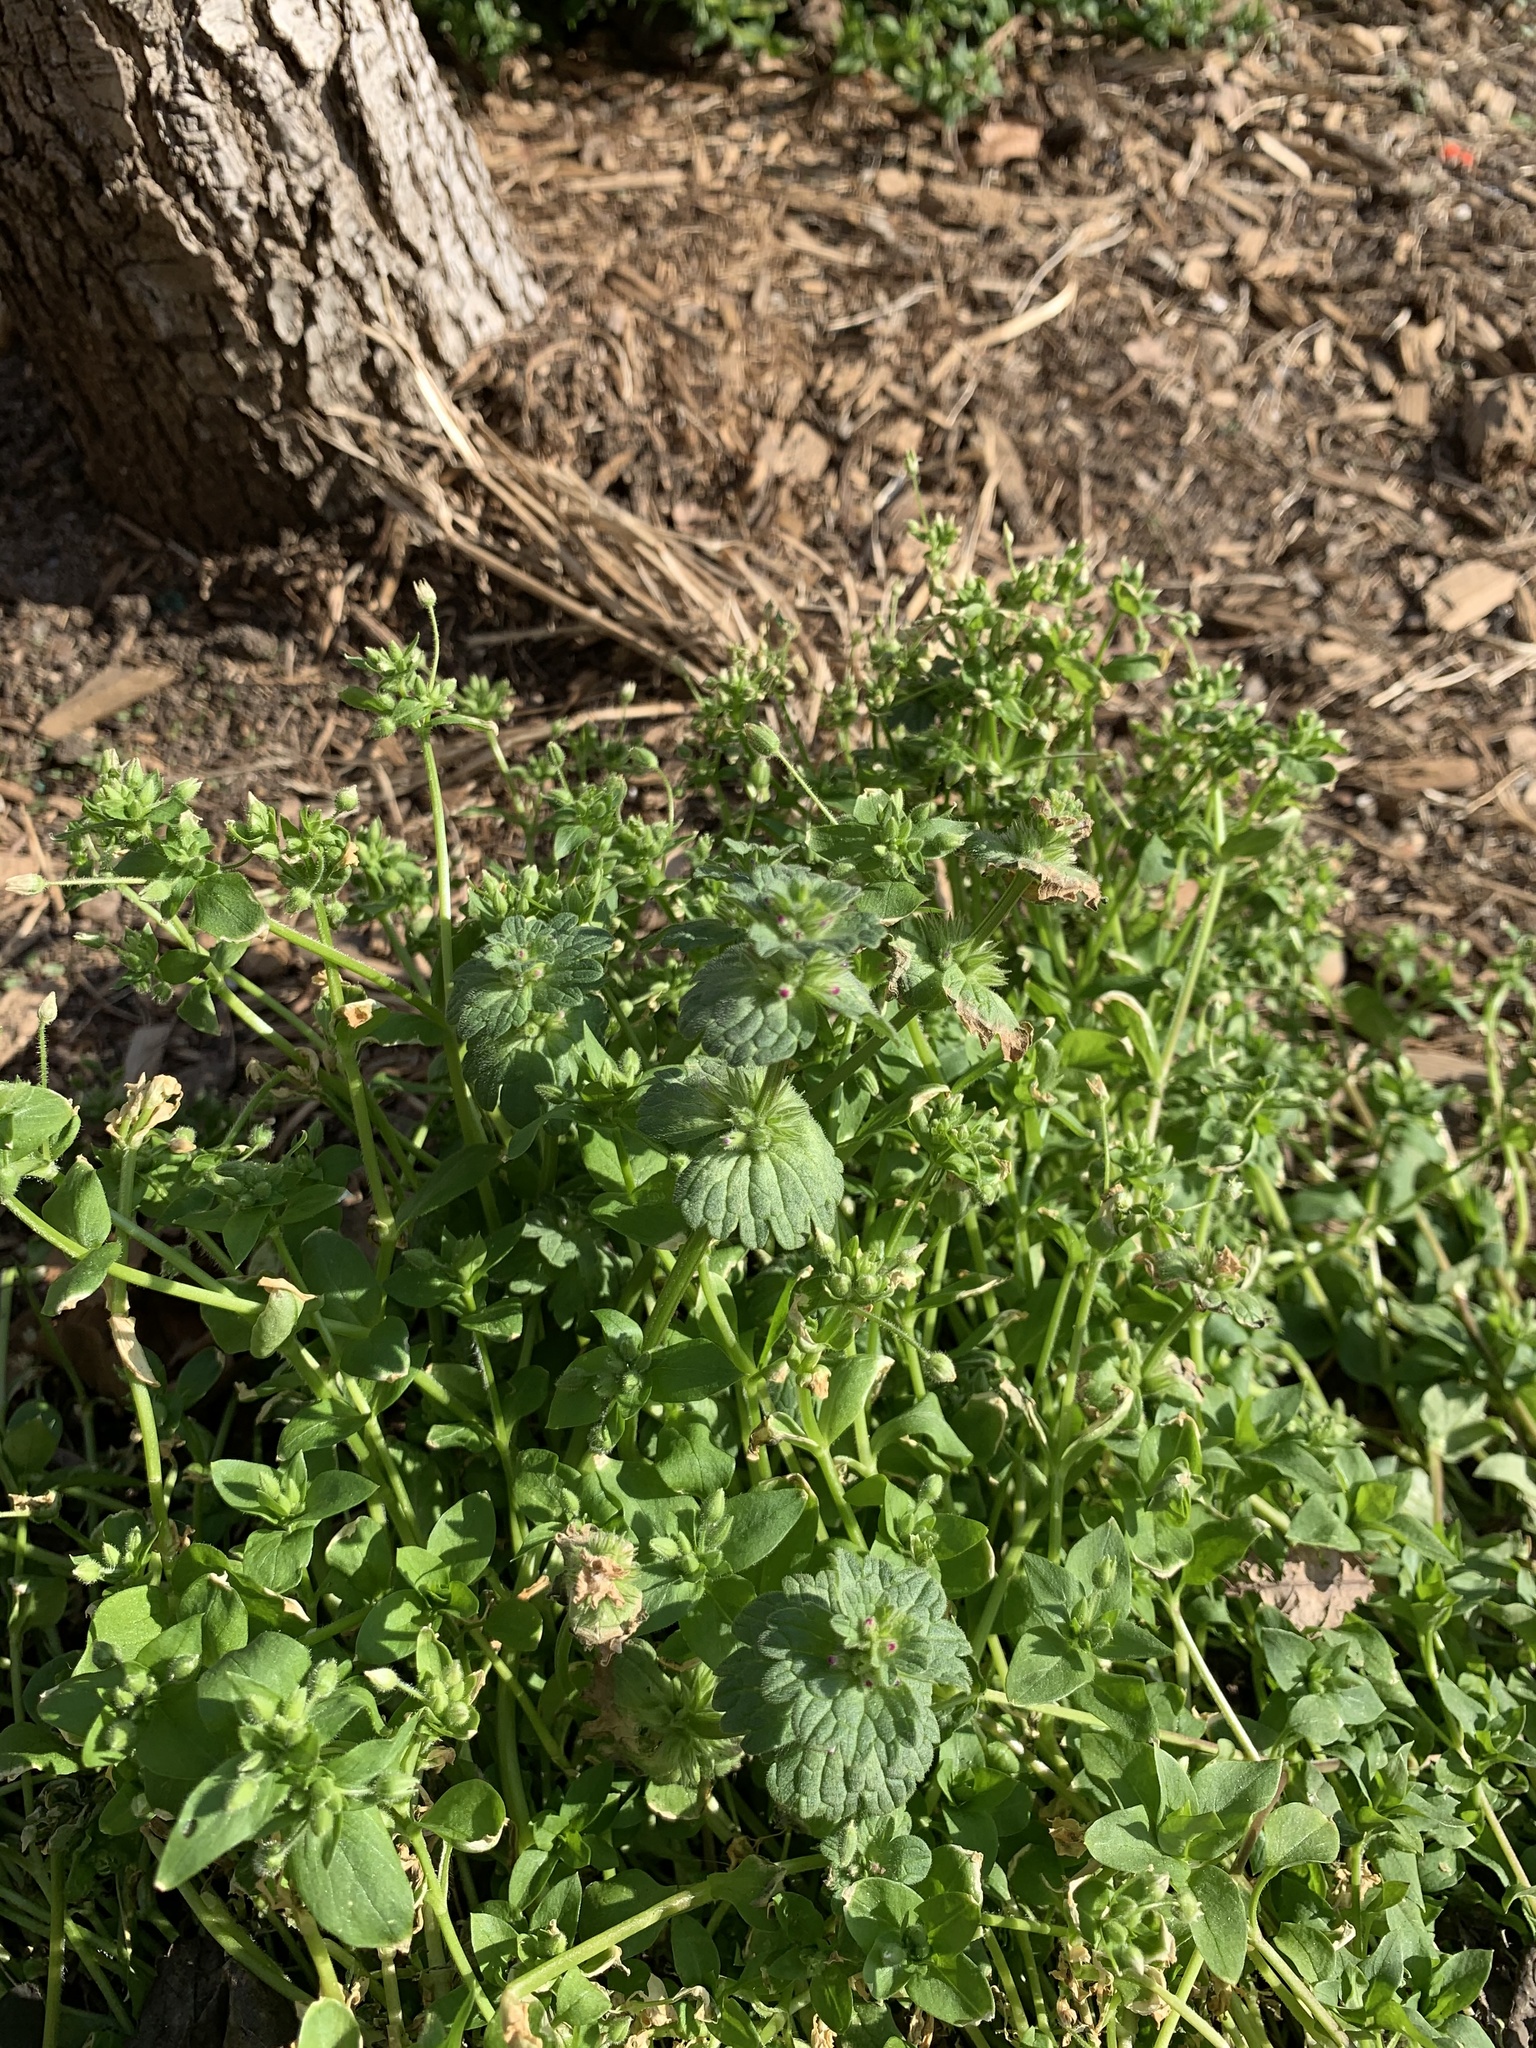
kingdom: Plantae
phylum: Tracheophyta
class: Magnoliopsida
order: Lamiales
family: Lamiaceae
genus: Lamium
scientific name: Lamium amplexicaule
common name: Henbit dead-nettle
